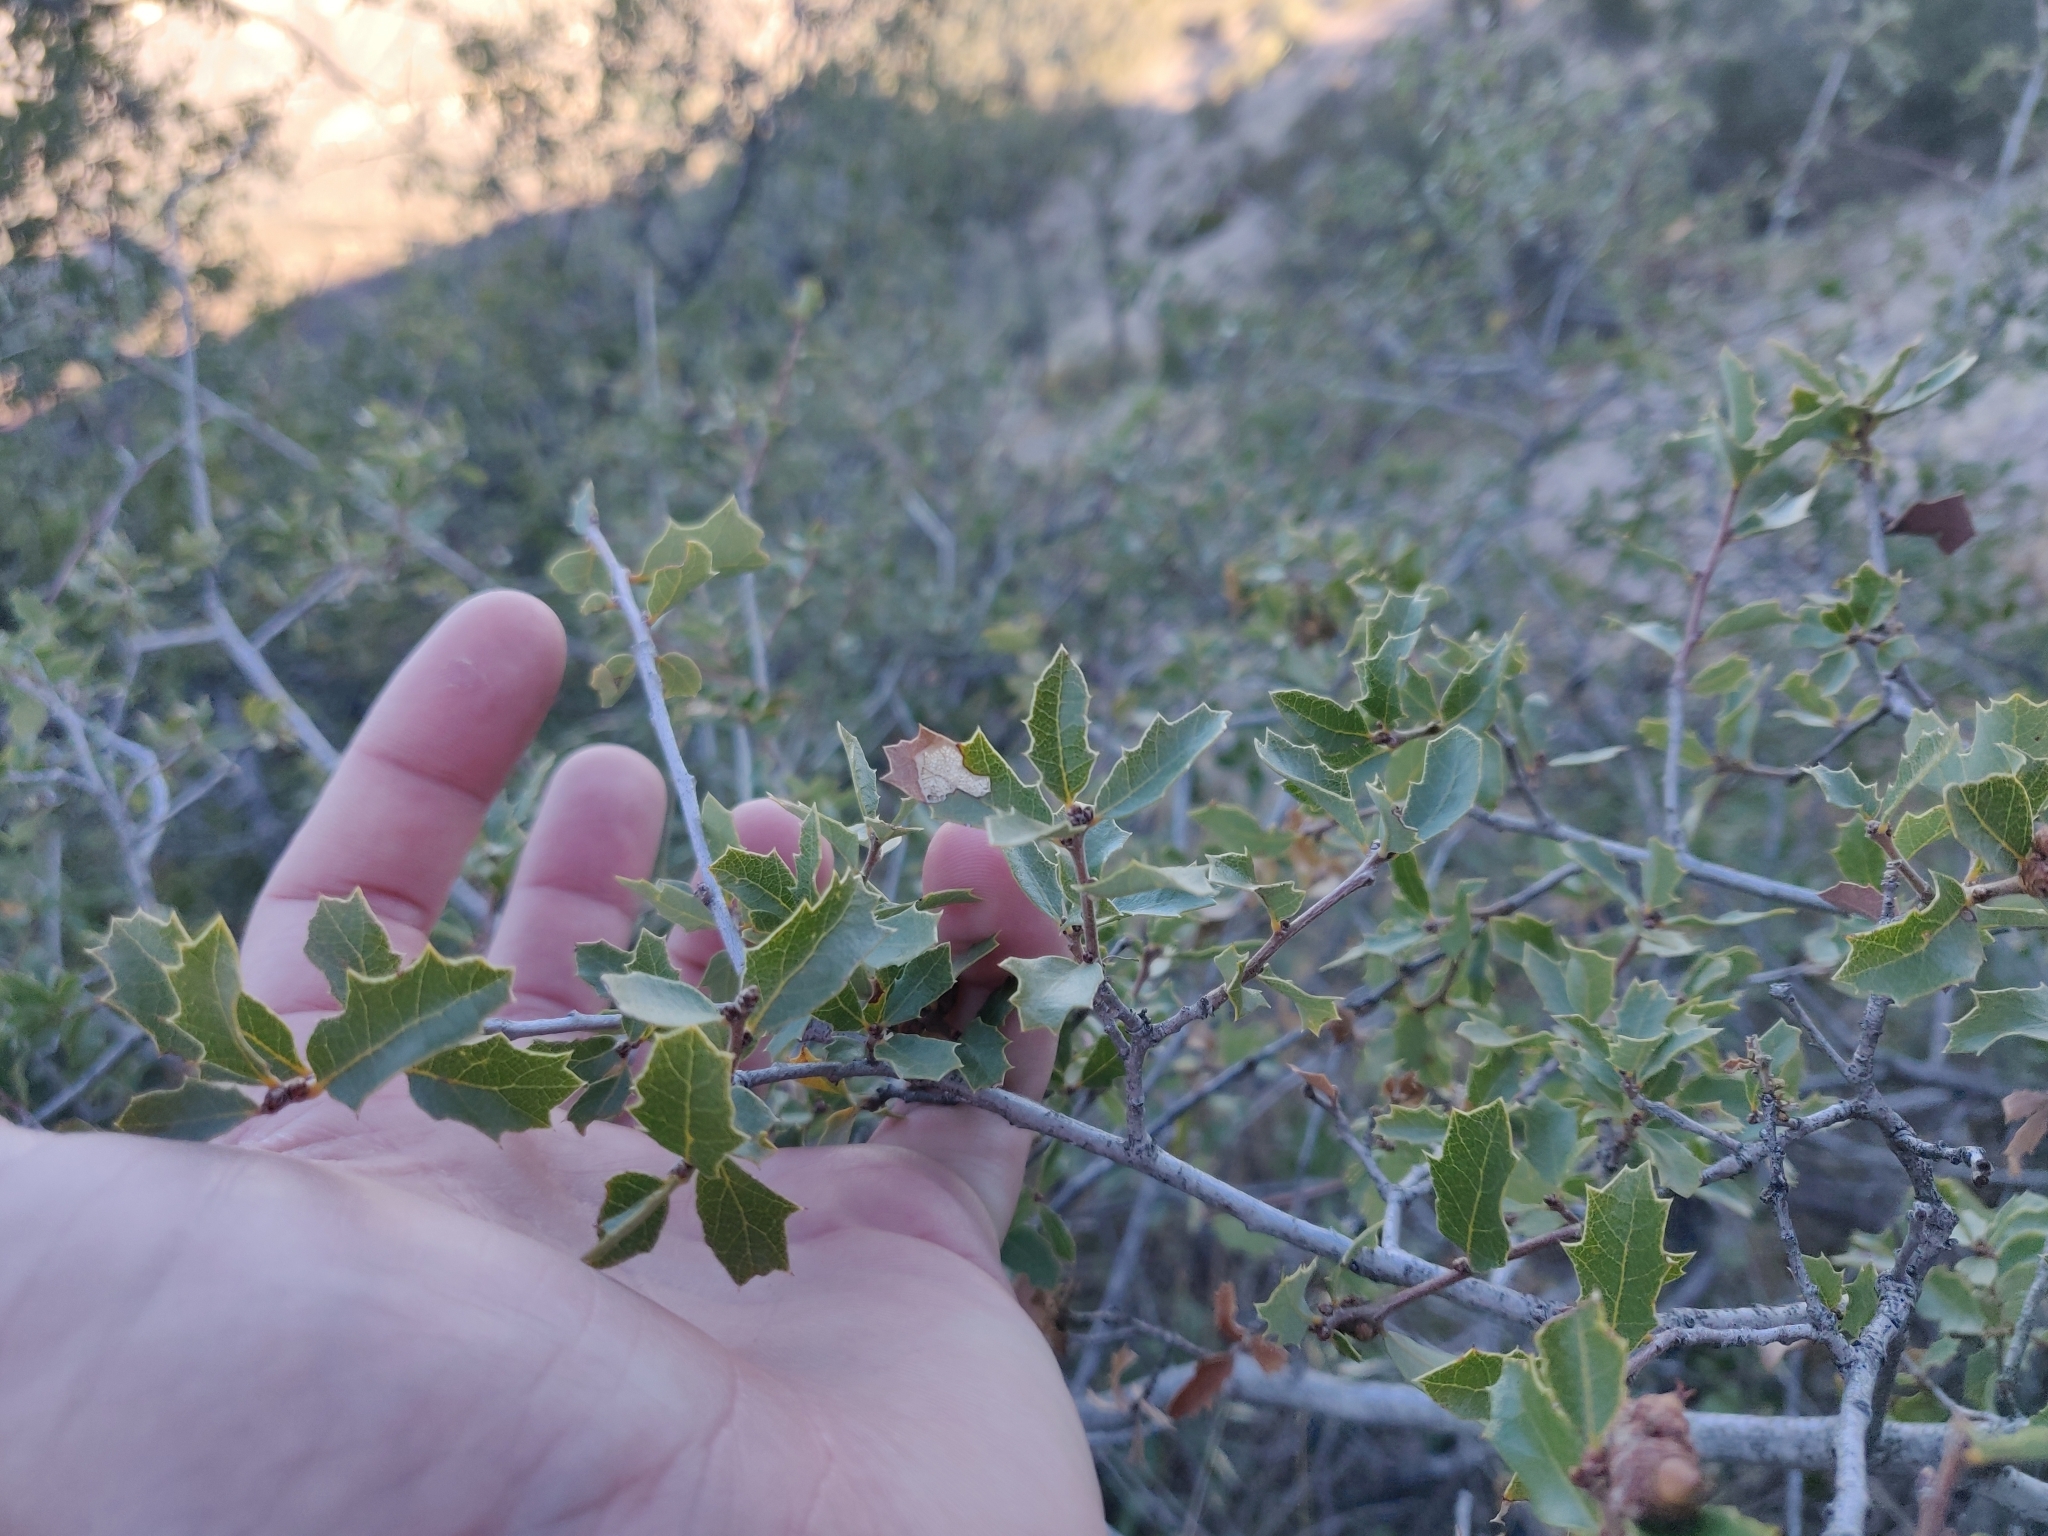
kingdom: Plantae
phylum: Tracheophyta
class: Magnoliopsida
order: Fagales
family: Fagaceae
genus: Quercus
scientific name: Quercus berberidifolia
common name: California scrub oak
